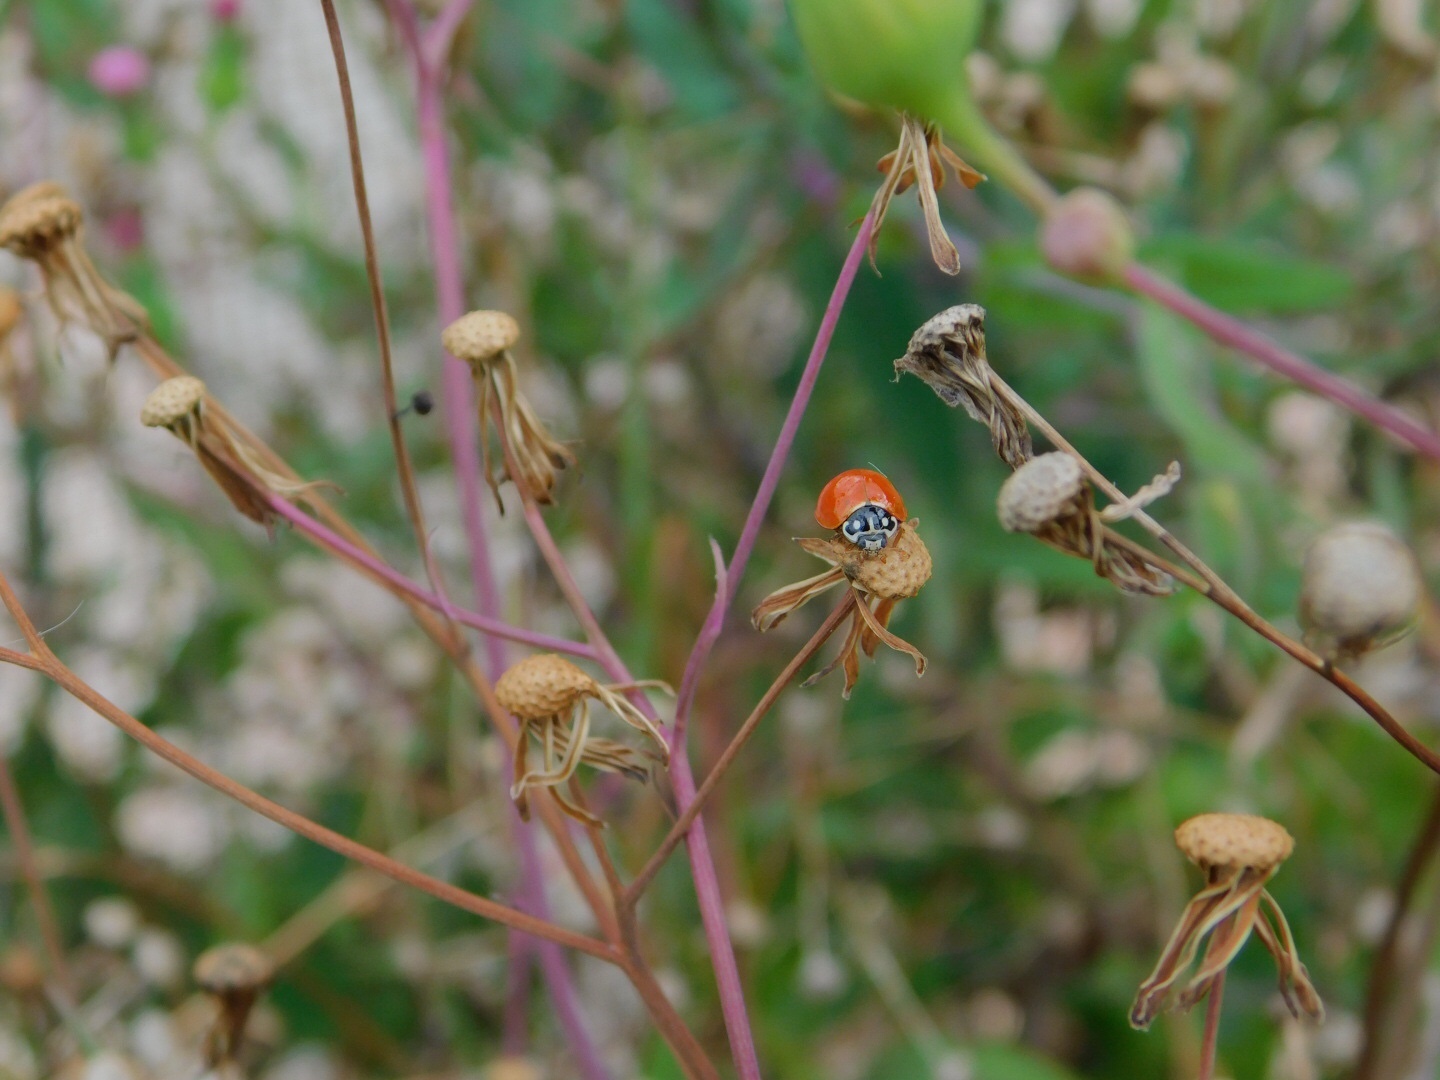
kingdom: Animalia
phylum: Arthropoda
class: Insecta
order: Coleoptera
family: Coccinellidae
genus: Cycloneda
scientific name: Cycloneda sanguinea
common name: Ladybird beetle
